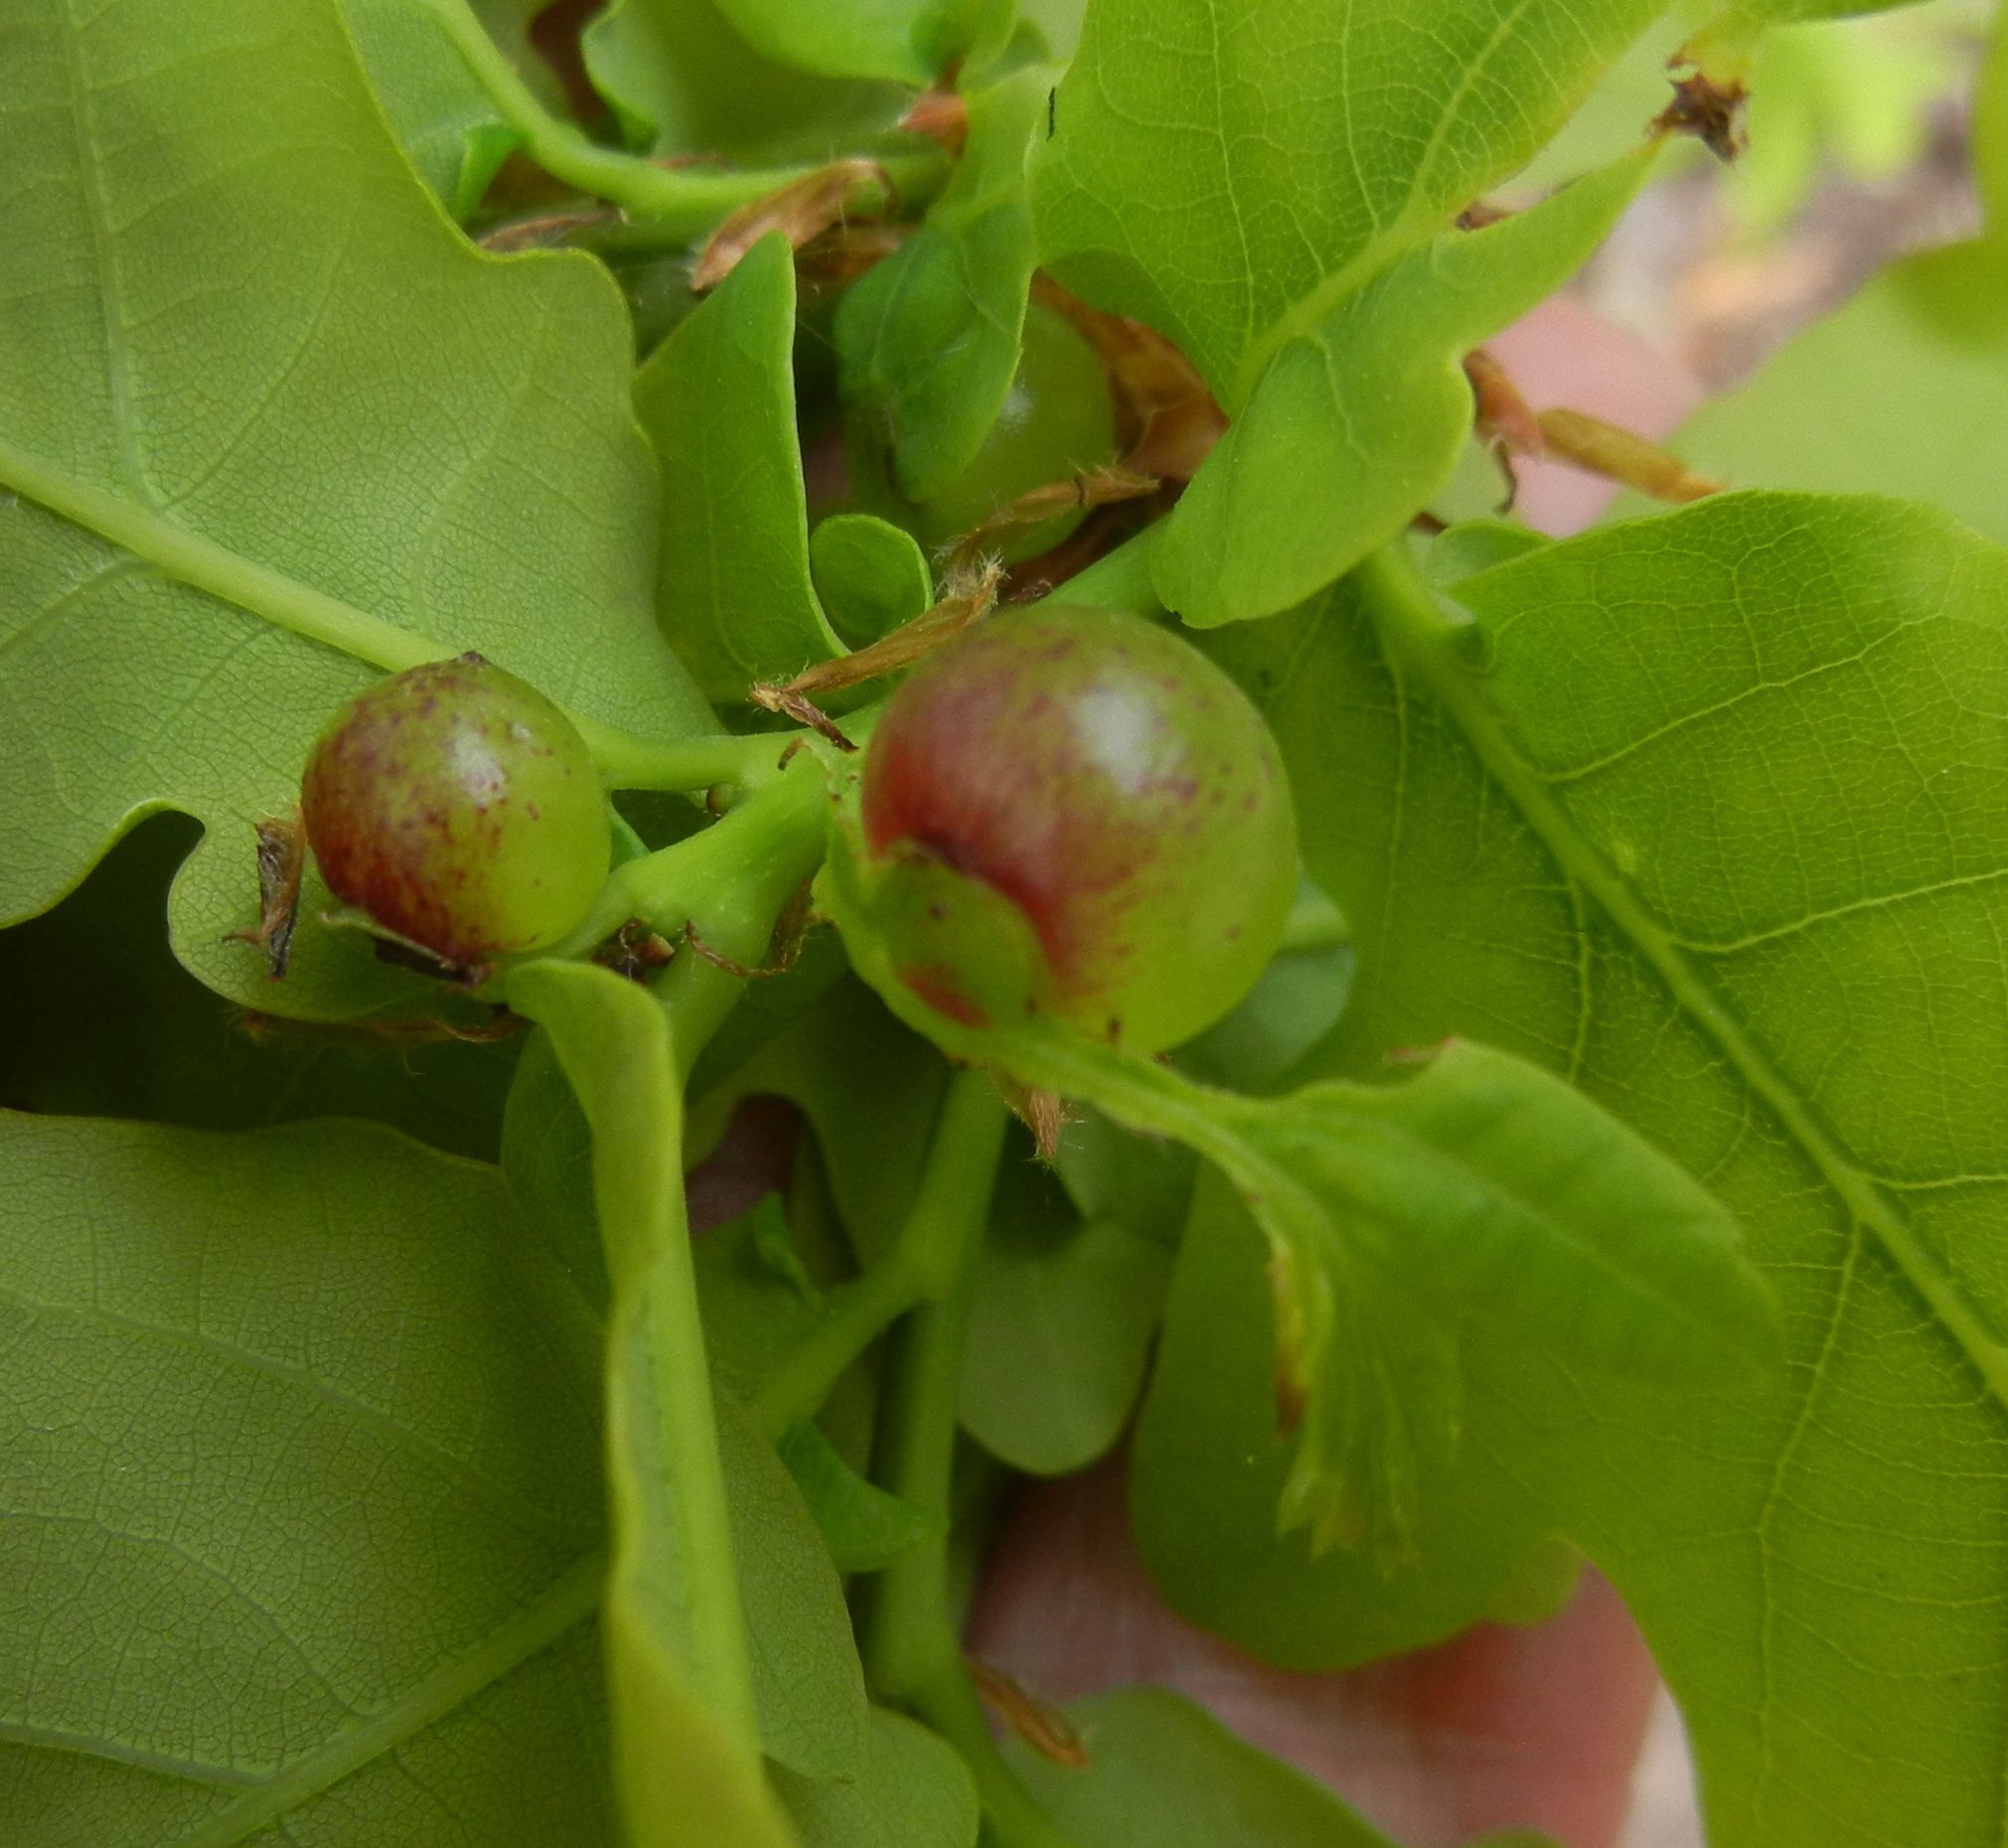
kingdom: Animalia
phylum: Arthropoda
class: Insecta
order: Hymenoptera
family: Cynipidae
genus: Neuroterus
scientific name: Neuroterus quercusbaccarum
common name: Common spangle gall
